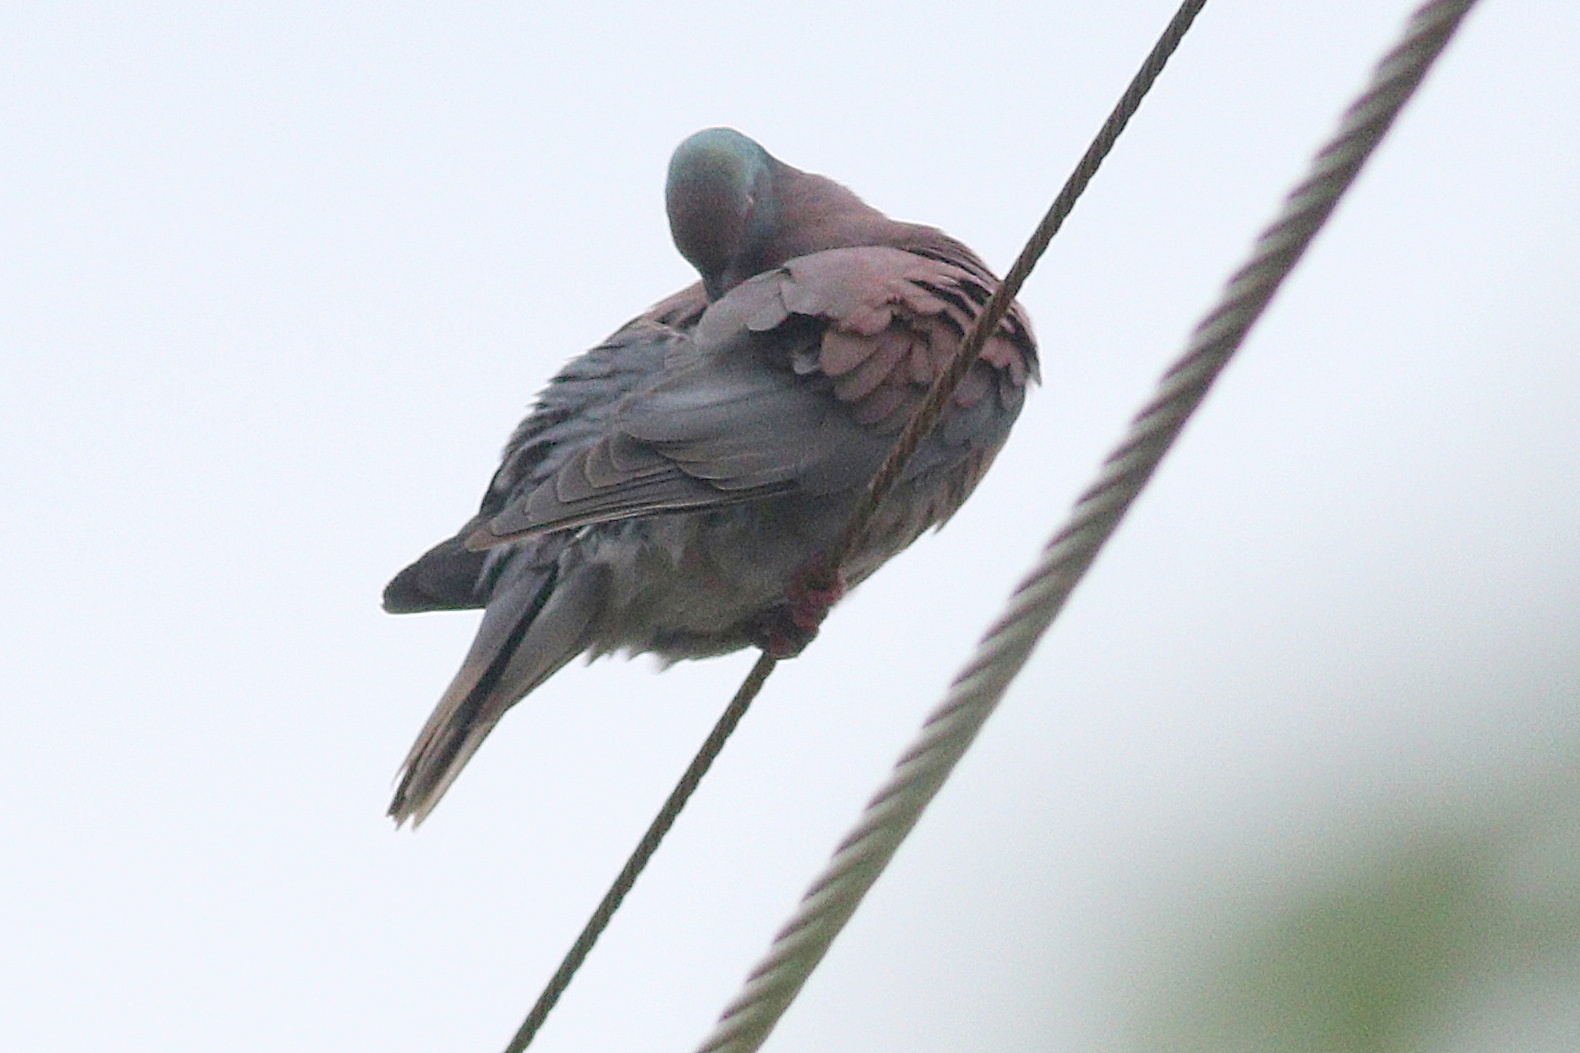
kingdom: Animalia
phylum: Chordata
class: Aves
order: Columbiformes
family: Columbidae
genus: Patagioenas
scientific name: Patagioenas cayennensis
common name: Pale-vented pigeon
